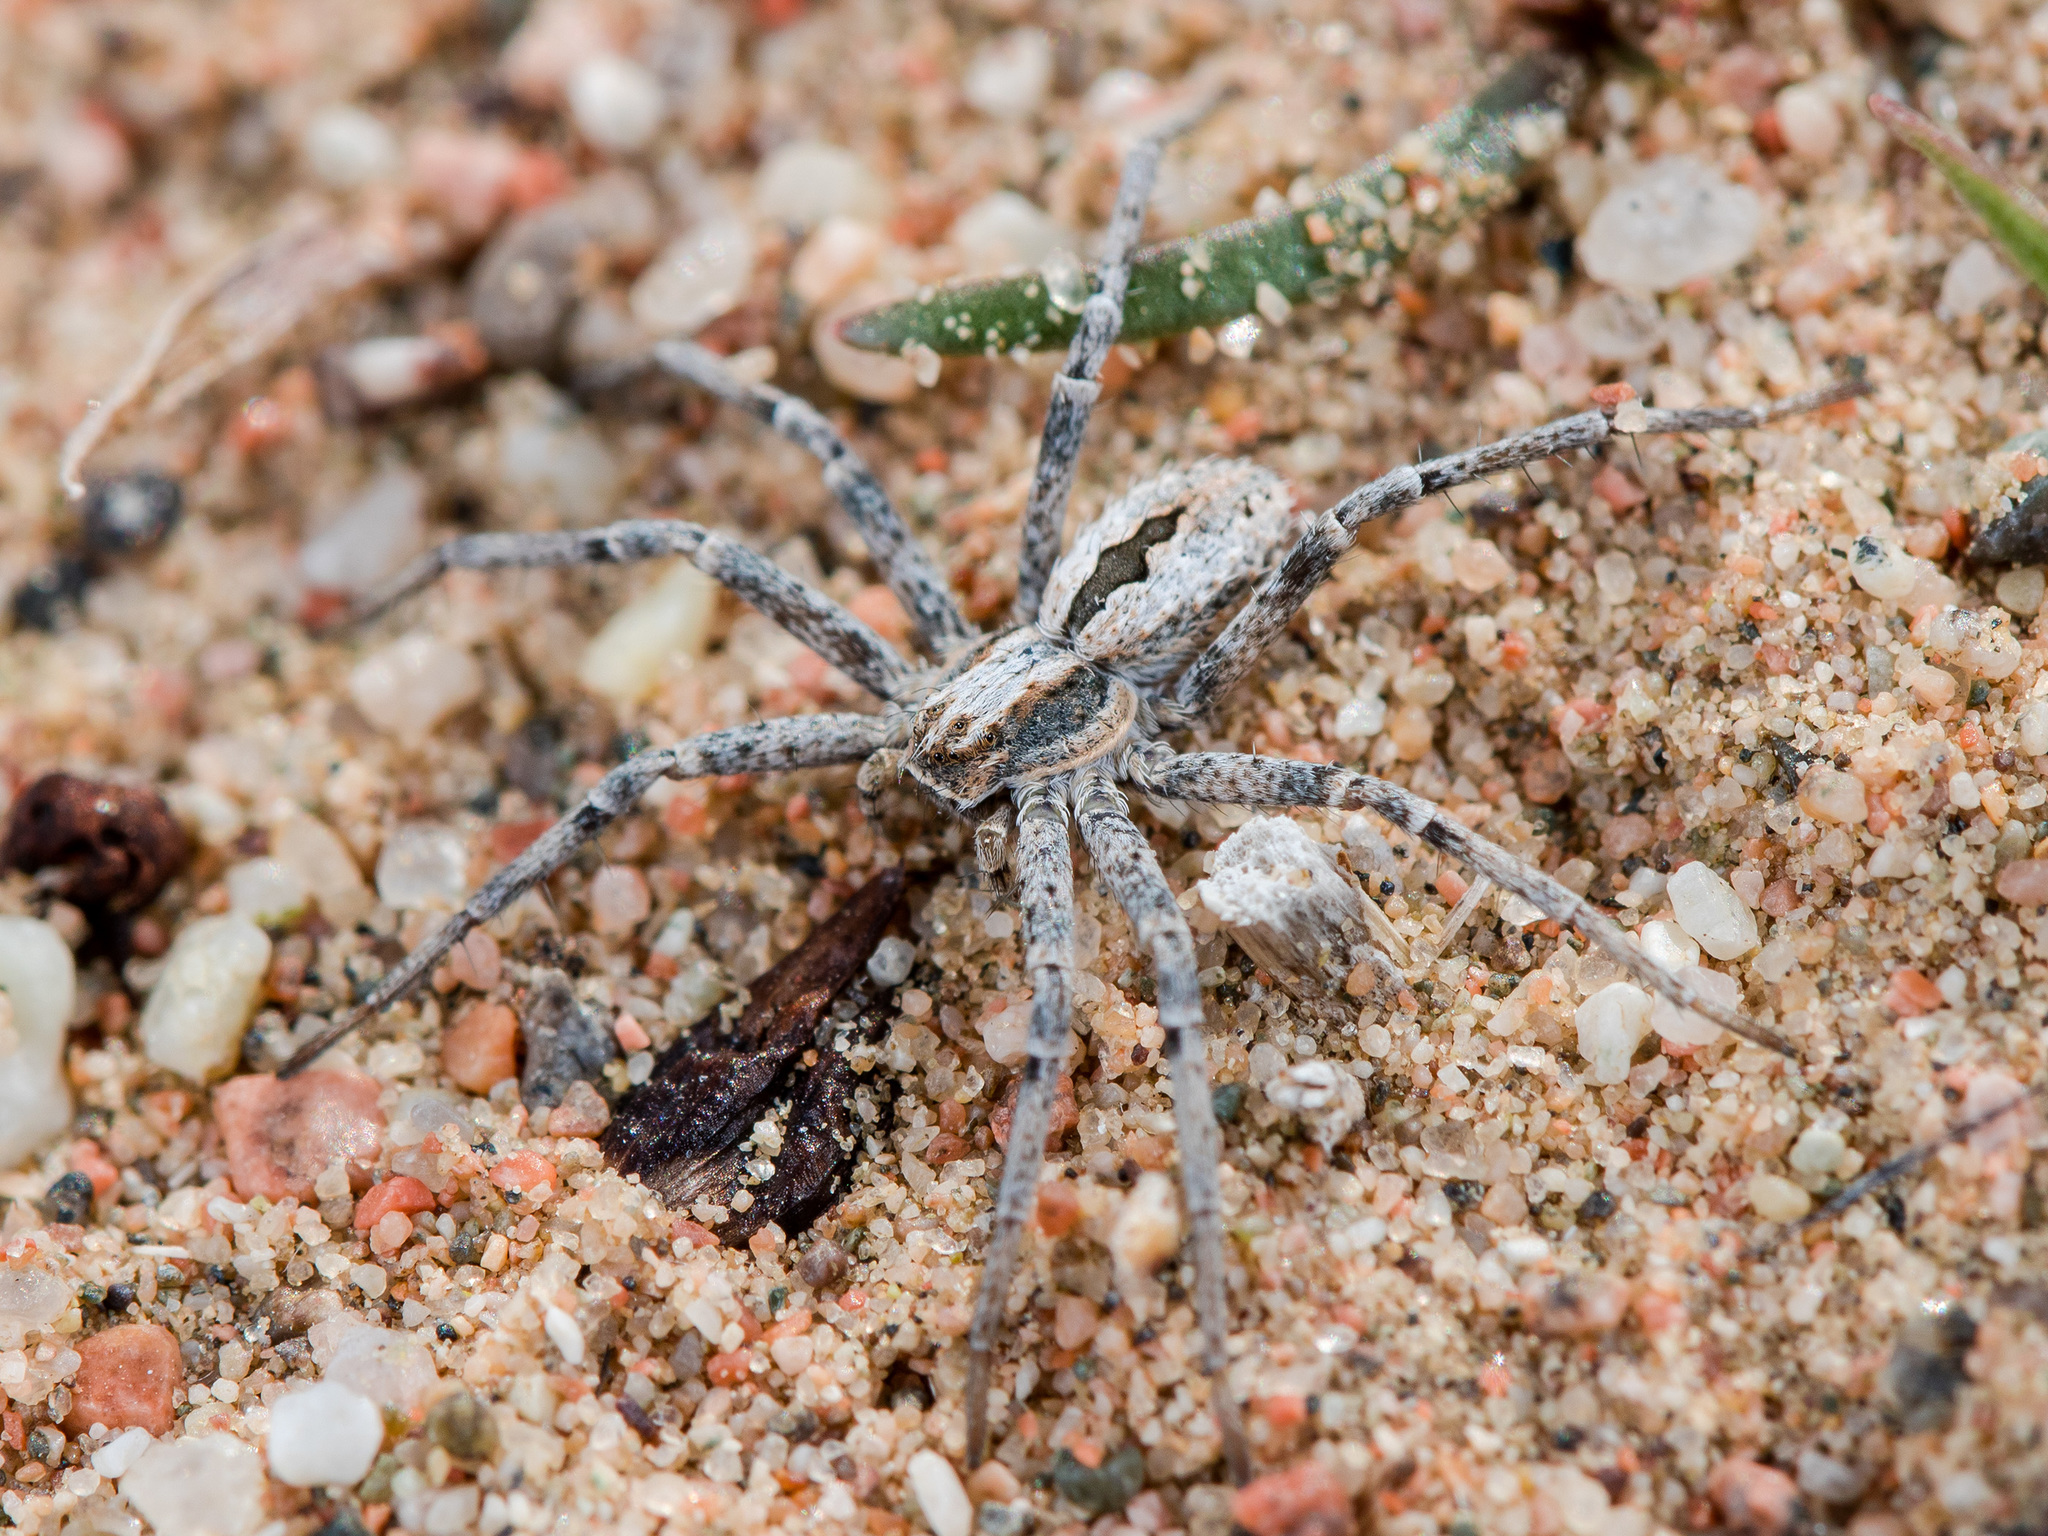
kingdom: Animalia
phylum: Arthropoda
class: Arachnida
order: Araneae
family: Philodromidae
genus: Thanatus
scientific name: Thanatus kitabensis
